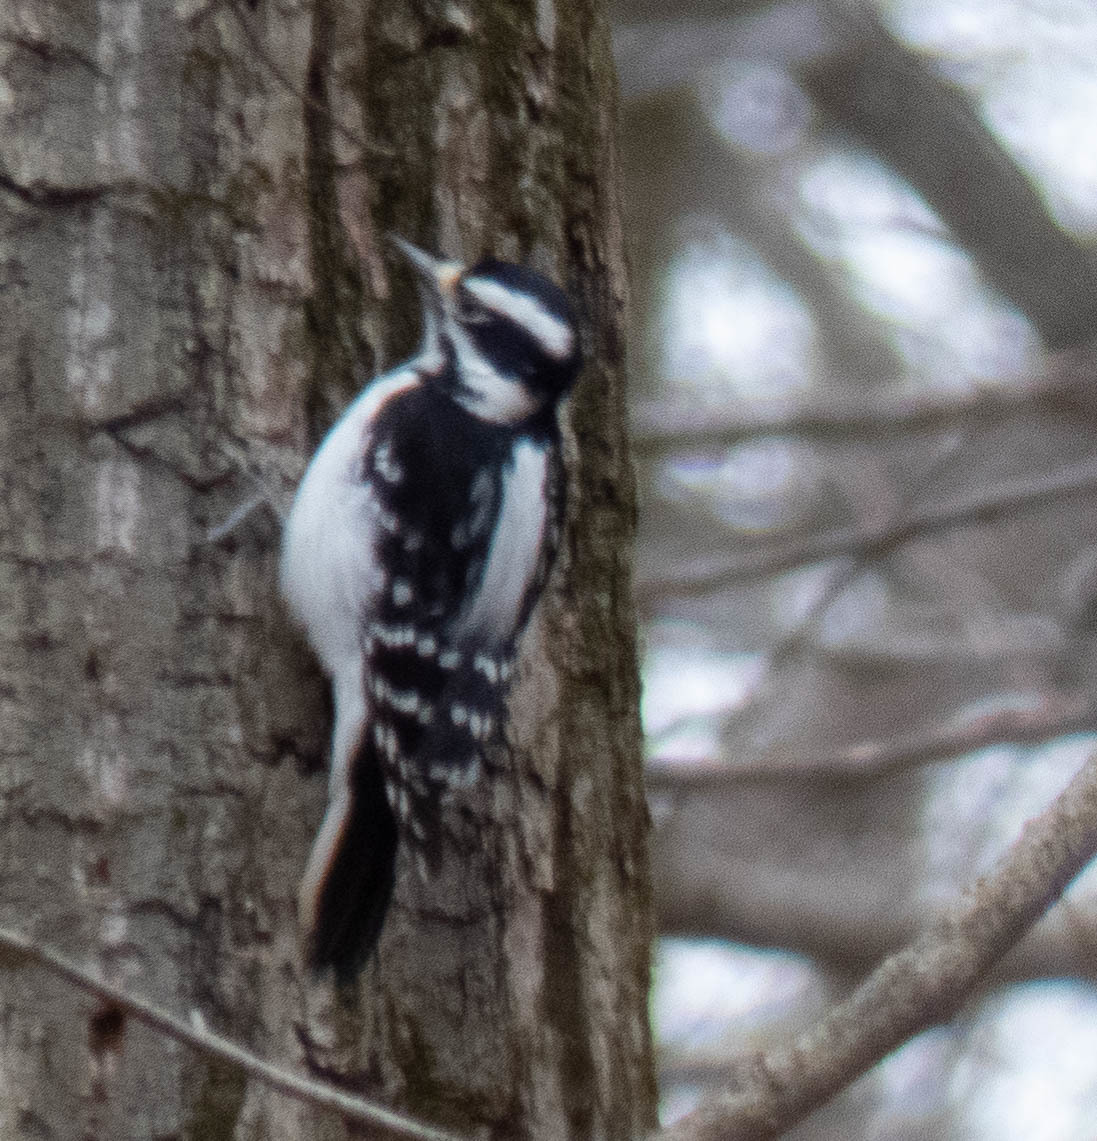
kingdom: Animalia
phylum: Chordata
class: Aves
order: Piciformes
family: Picidae
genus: Leuconotopicus
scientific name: Leuconotopicus villosus
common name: Hairy woodpecker
